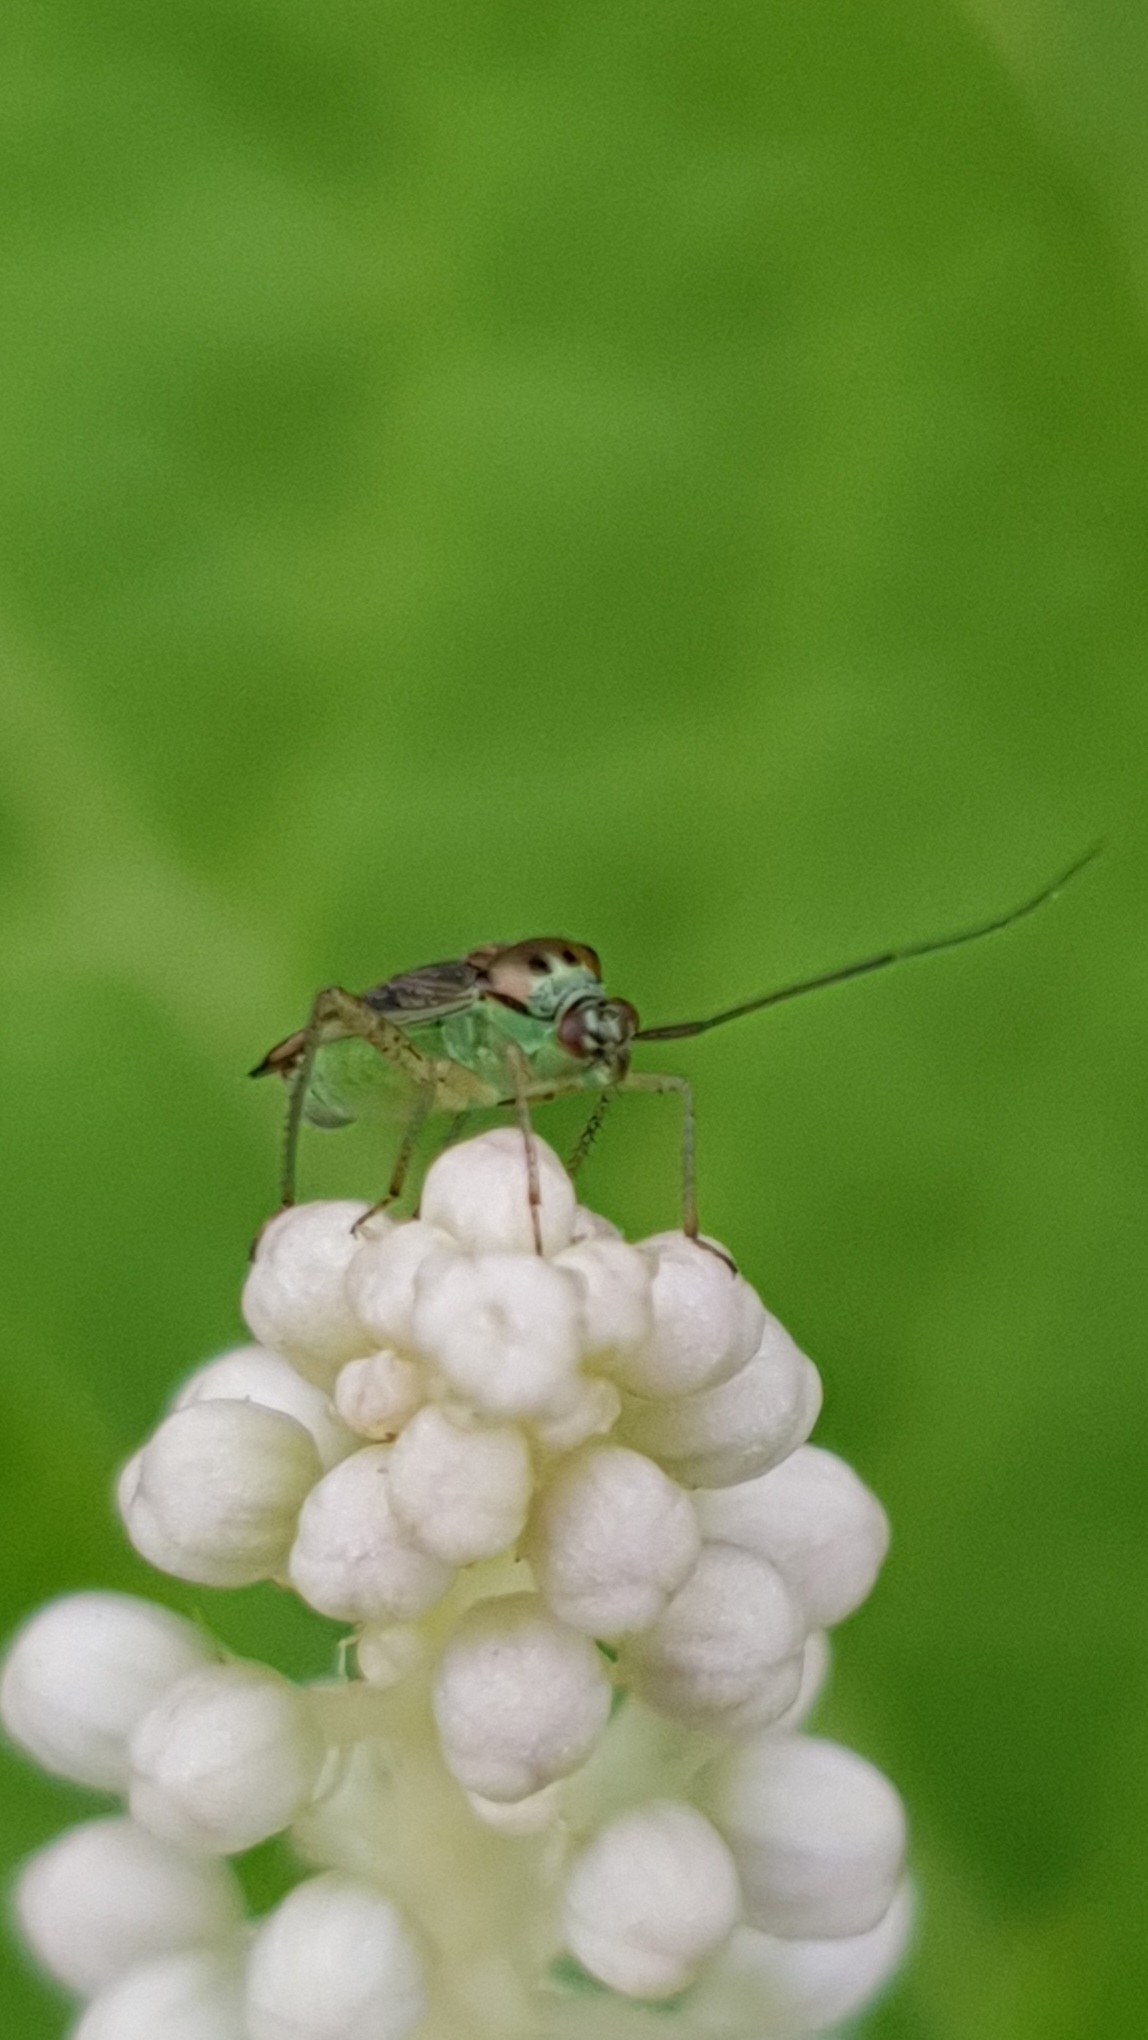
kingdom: Animalia
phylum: Arthropoda
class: Insecta
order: Hemiptera
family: Miridae
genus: Closterotomus
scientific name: Closterotomus trivialis
